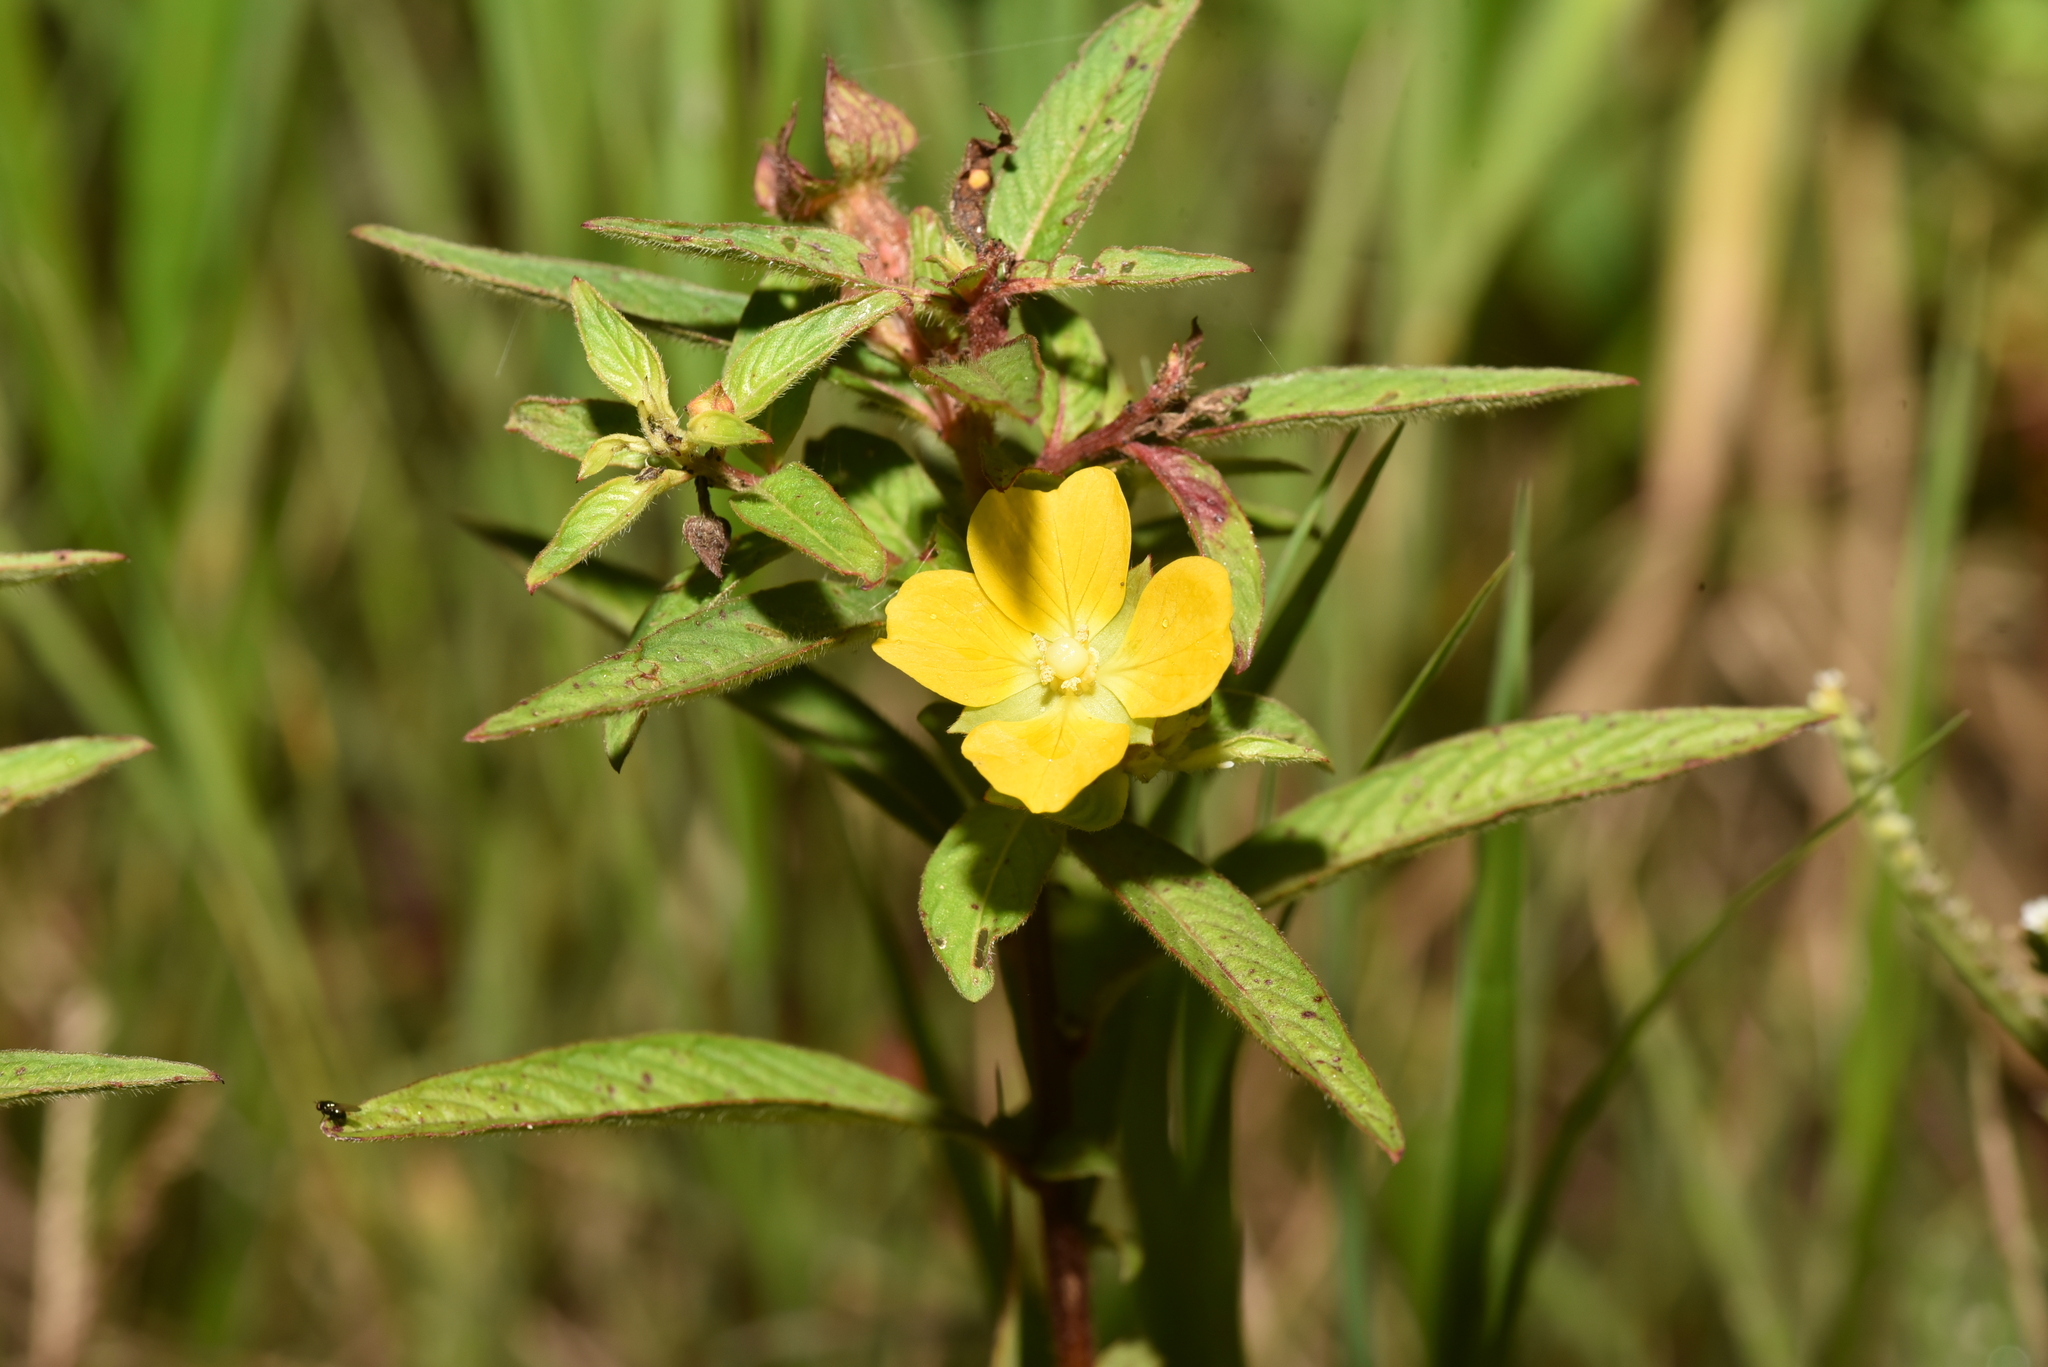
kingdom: Plantae
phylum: Tracheophyta
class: Magnoliopsida
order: Myrtales
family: Onagraceae
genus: Ludwigia
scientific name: Ludwigia octovalvis
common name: Water-primrose
